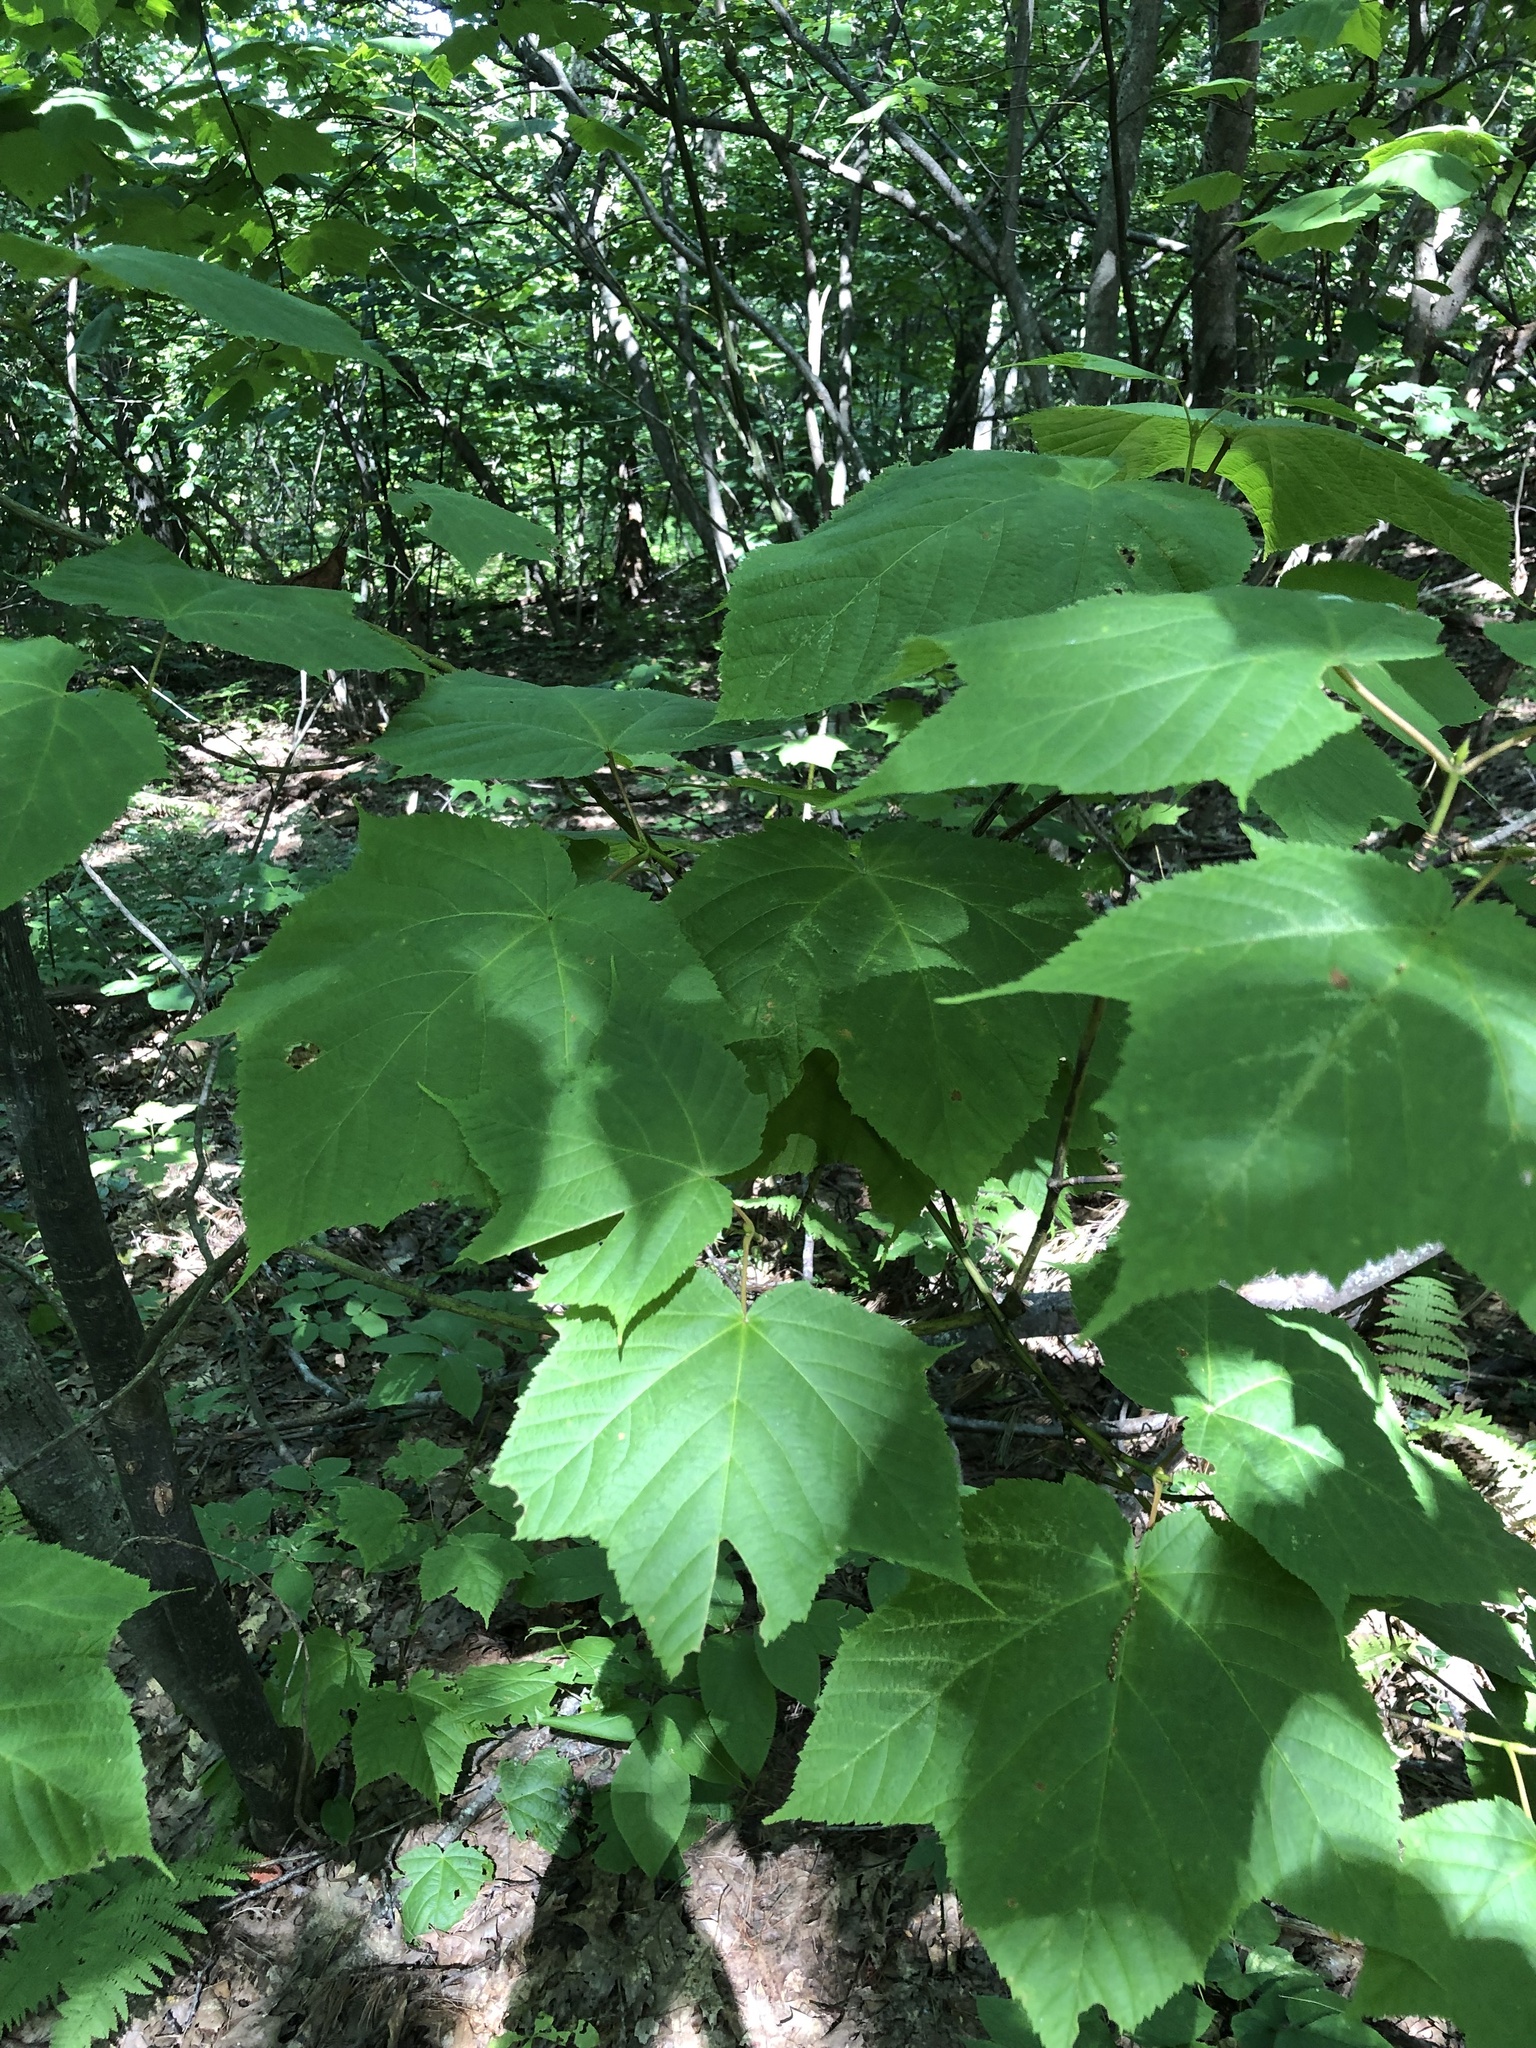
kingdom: Plantae
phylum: Tracheophyta
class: Magnoliopsida
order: Sapindales
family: Sapindaceae
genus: Acer
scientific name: Acer pensylvanicum
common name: Moosewood
